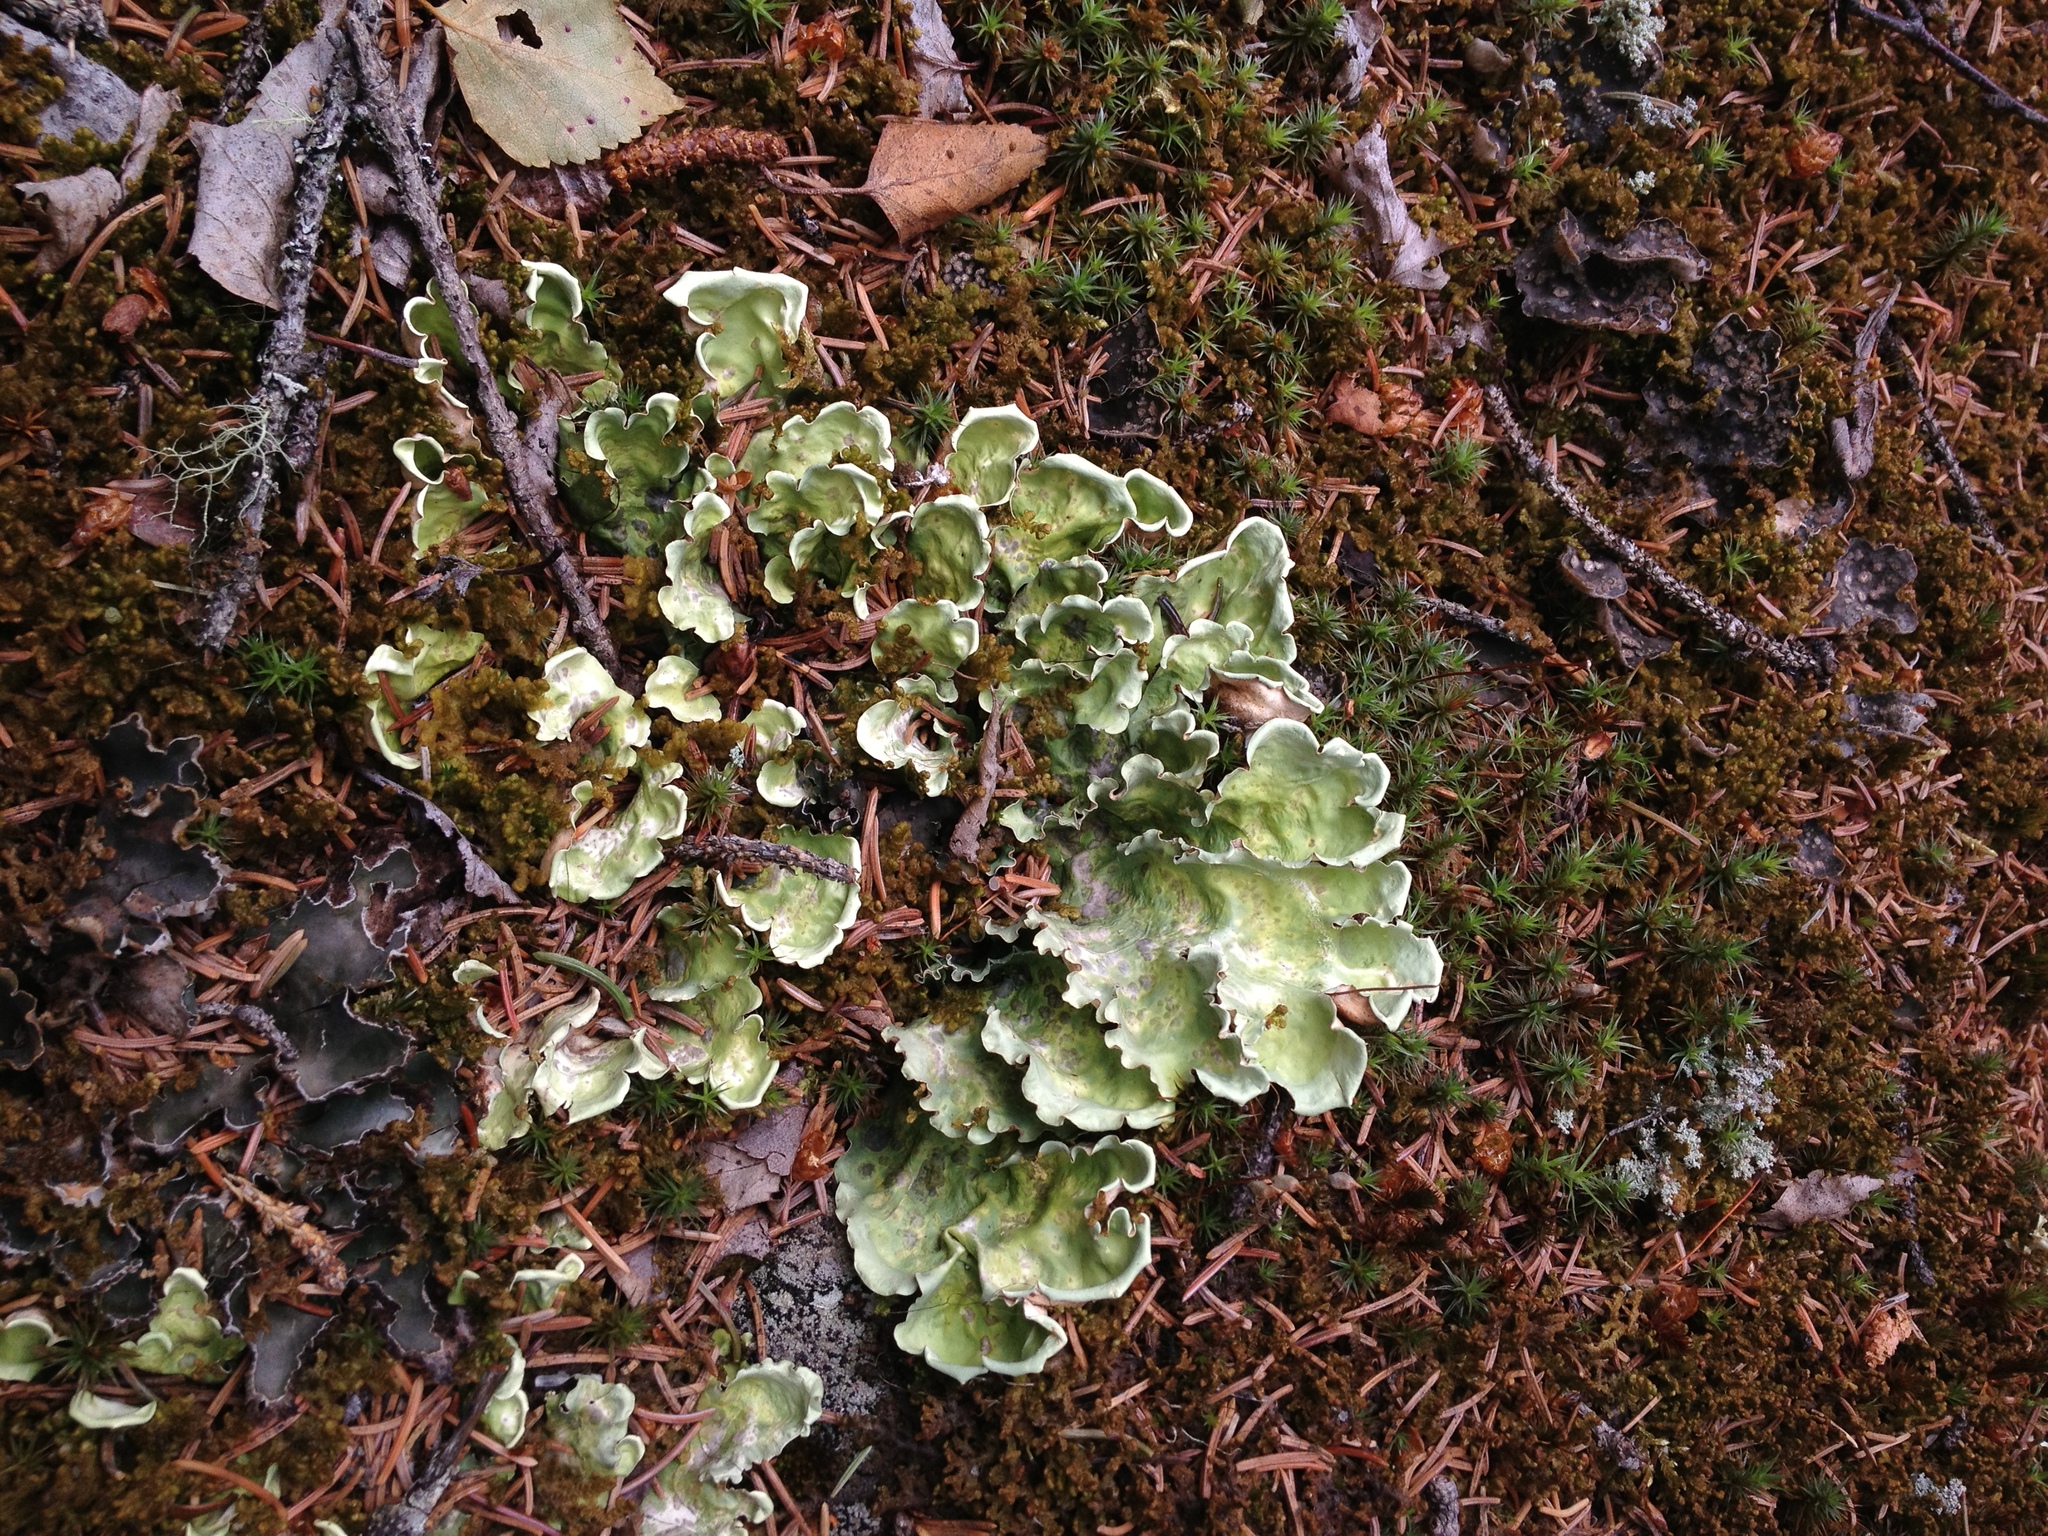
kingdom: Fungi
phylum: Ascomycota
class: Lecanoromycetes
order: Peltigerales
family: Nephromataceae
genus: Nephroma
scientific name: Nephroma arcticum
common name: Arctic kidney-lichen
